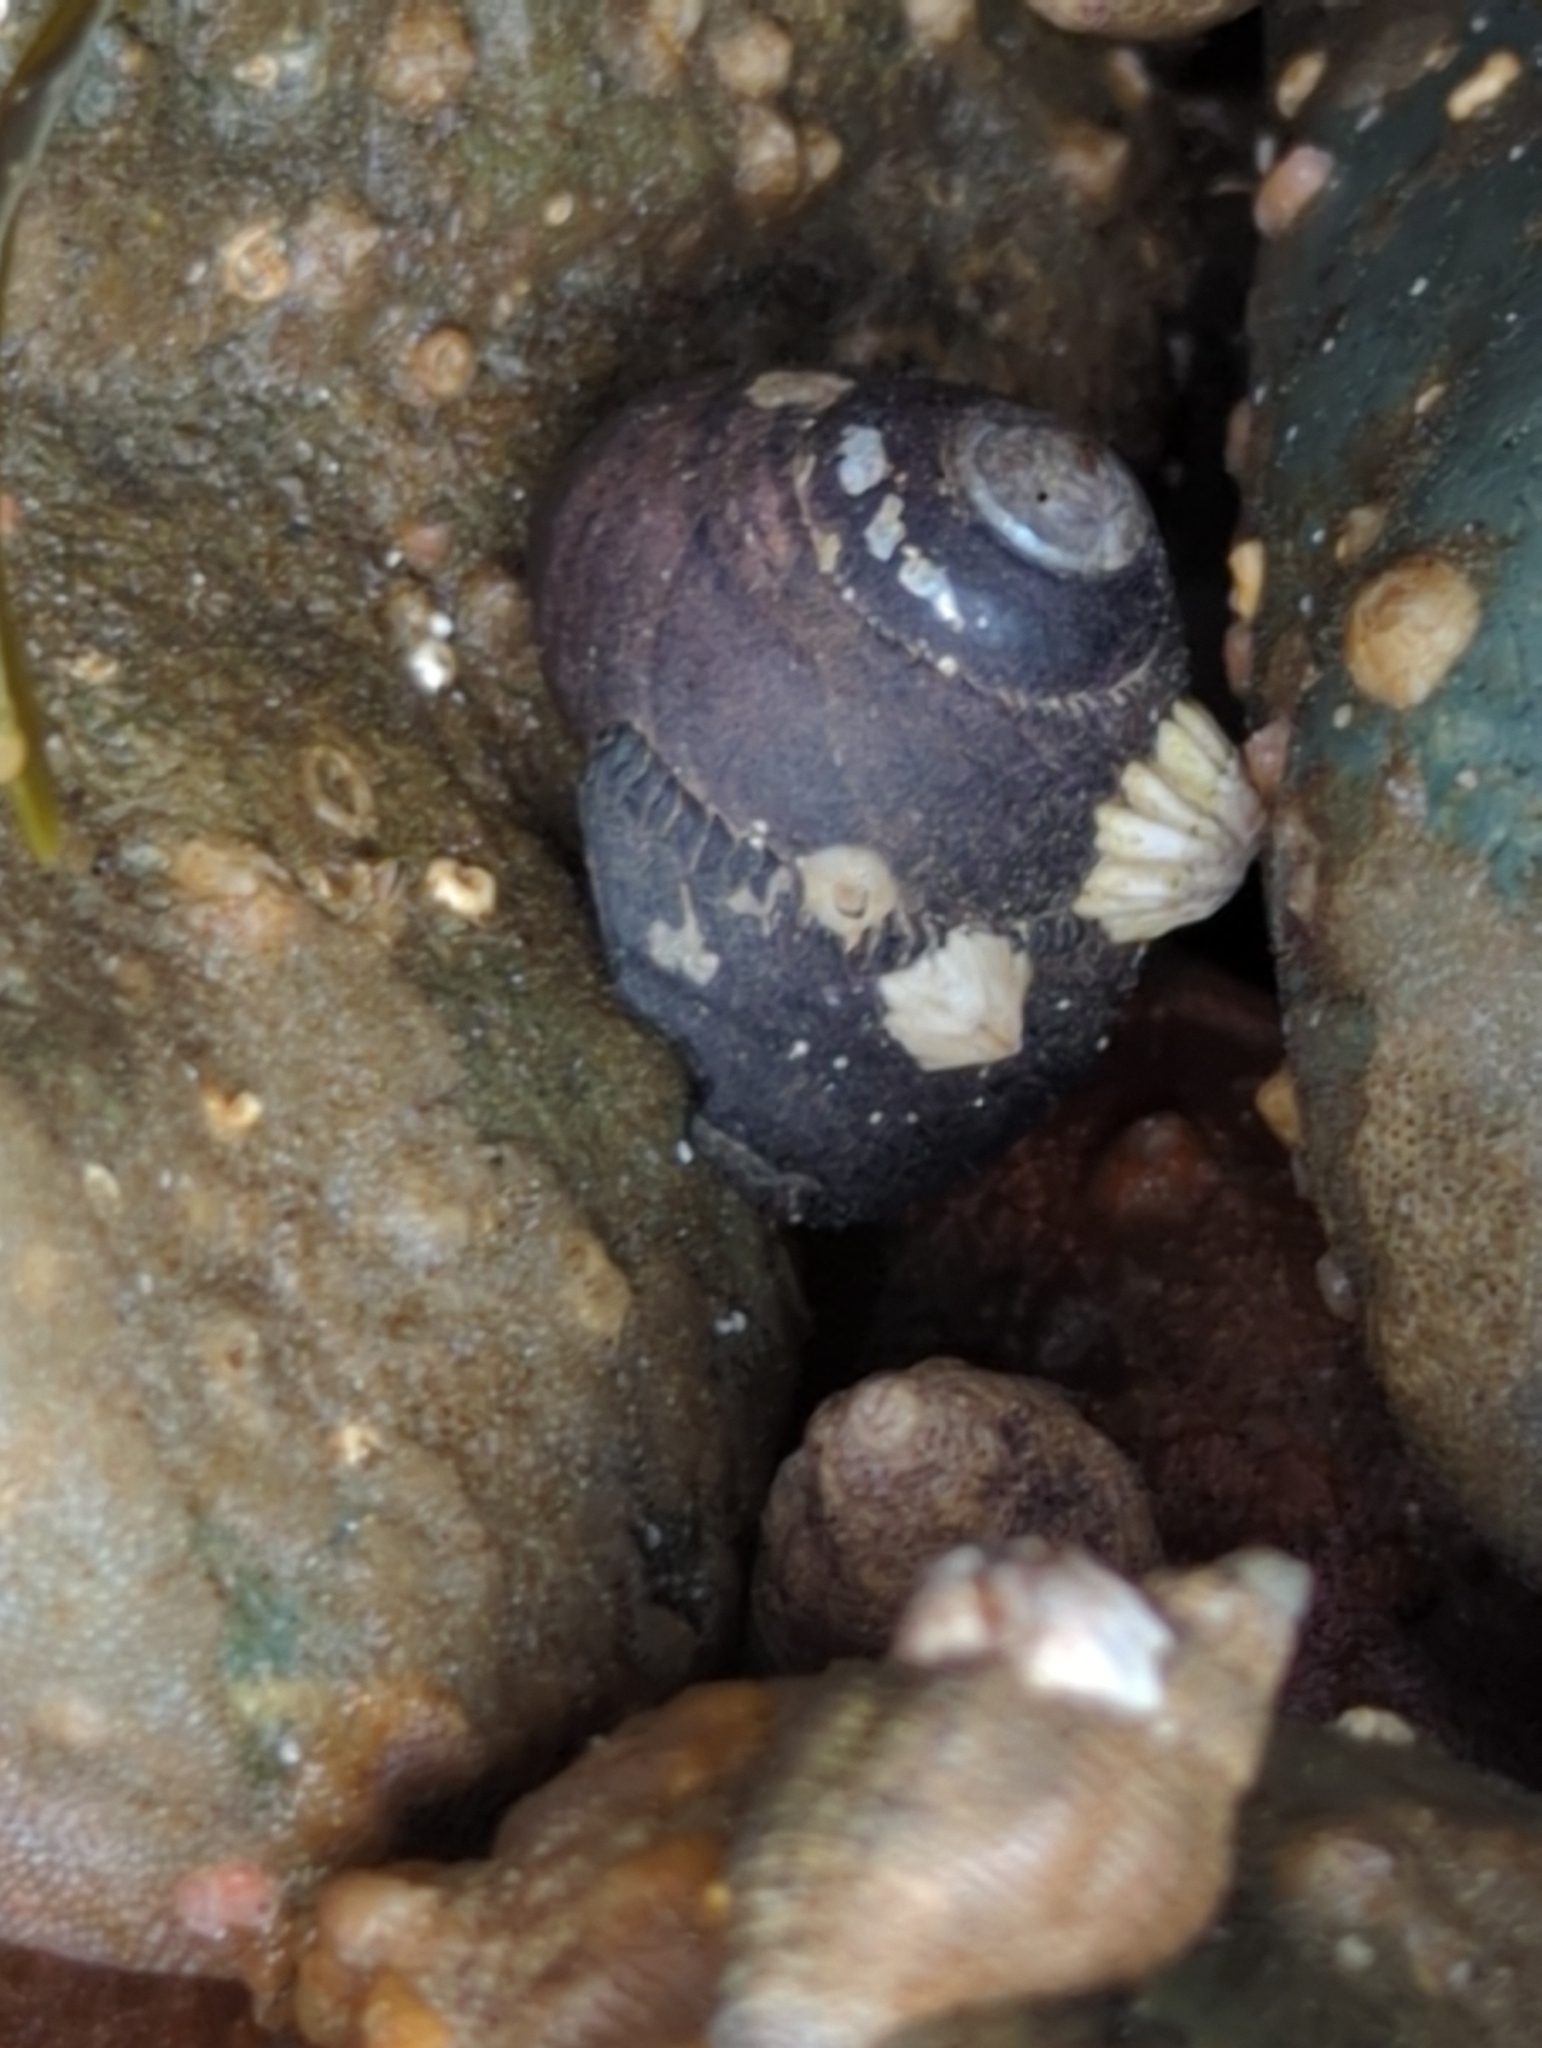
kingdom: Animalia
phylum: Mollusca
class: Gastropoda
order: Trochida
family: Tegulidae
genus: Tegula
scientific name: Tegula funebralis
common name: Black tegula
